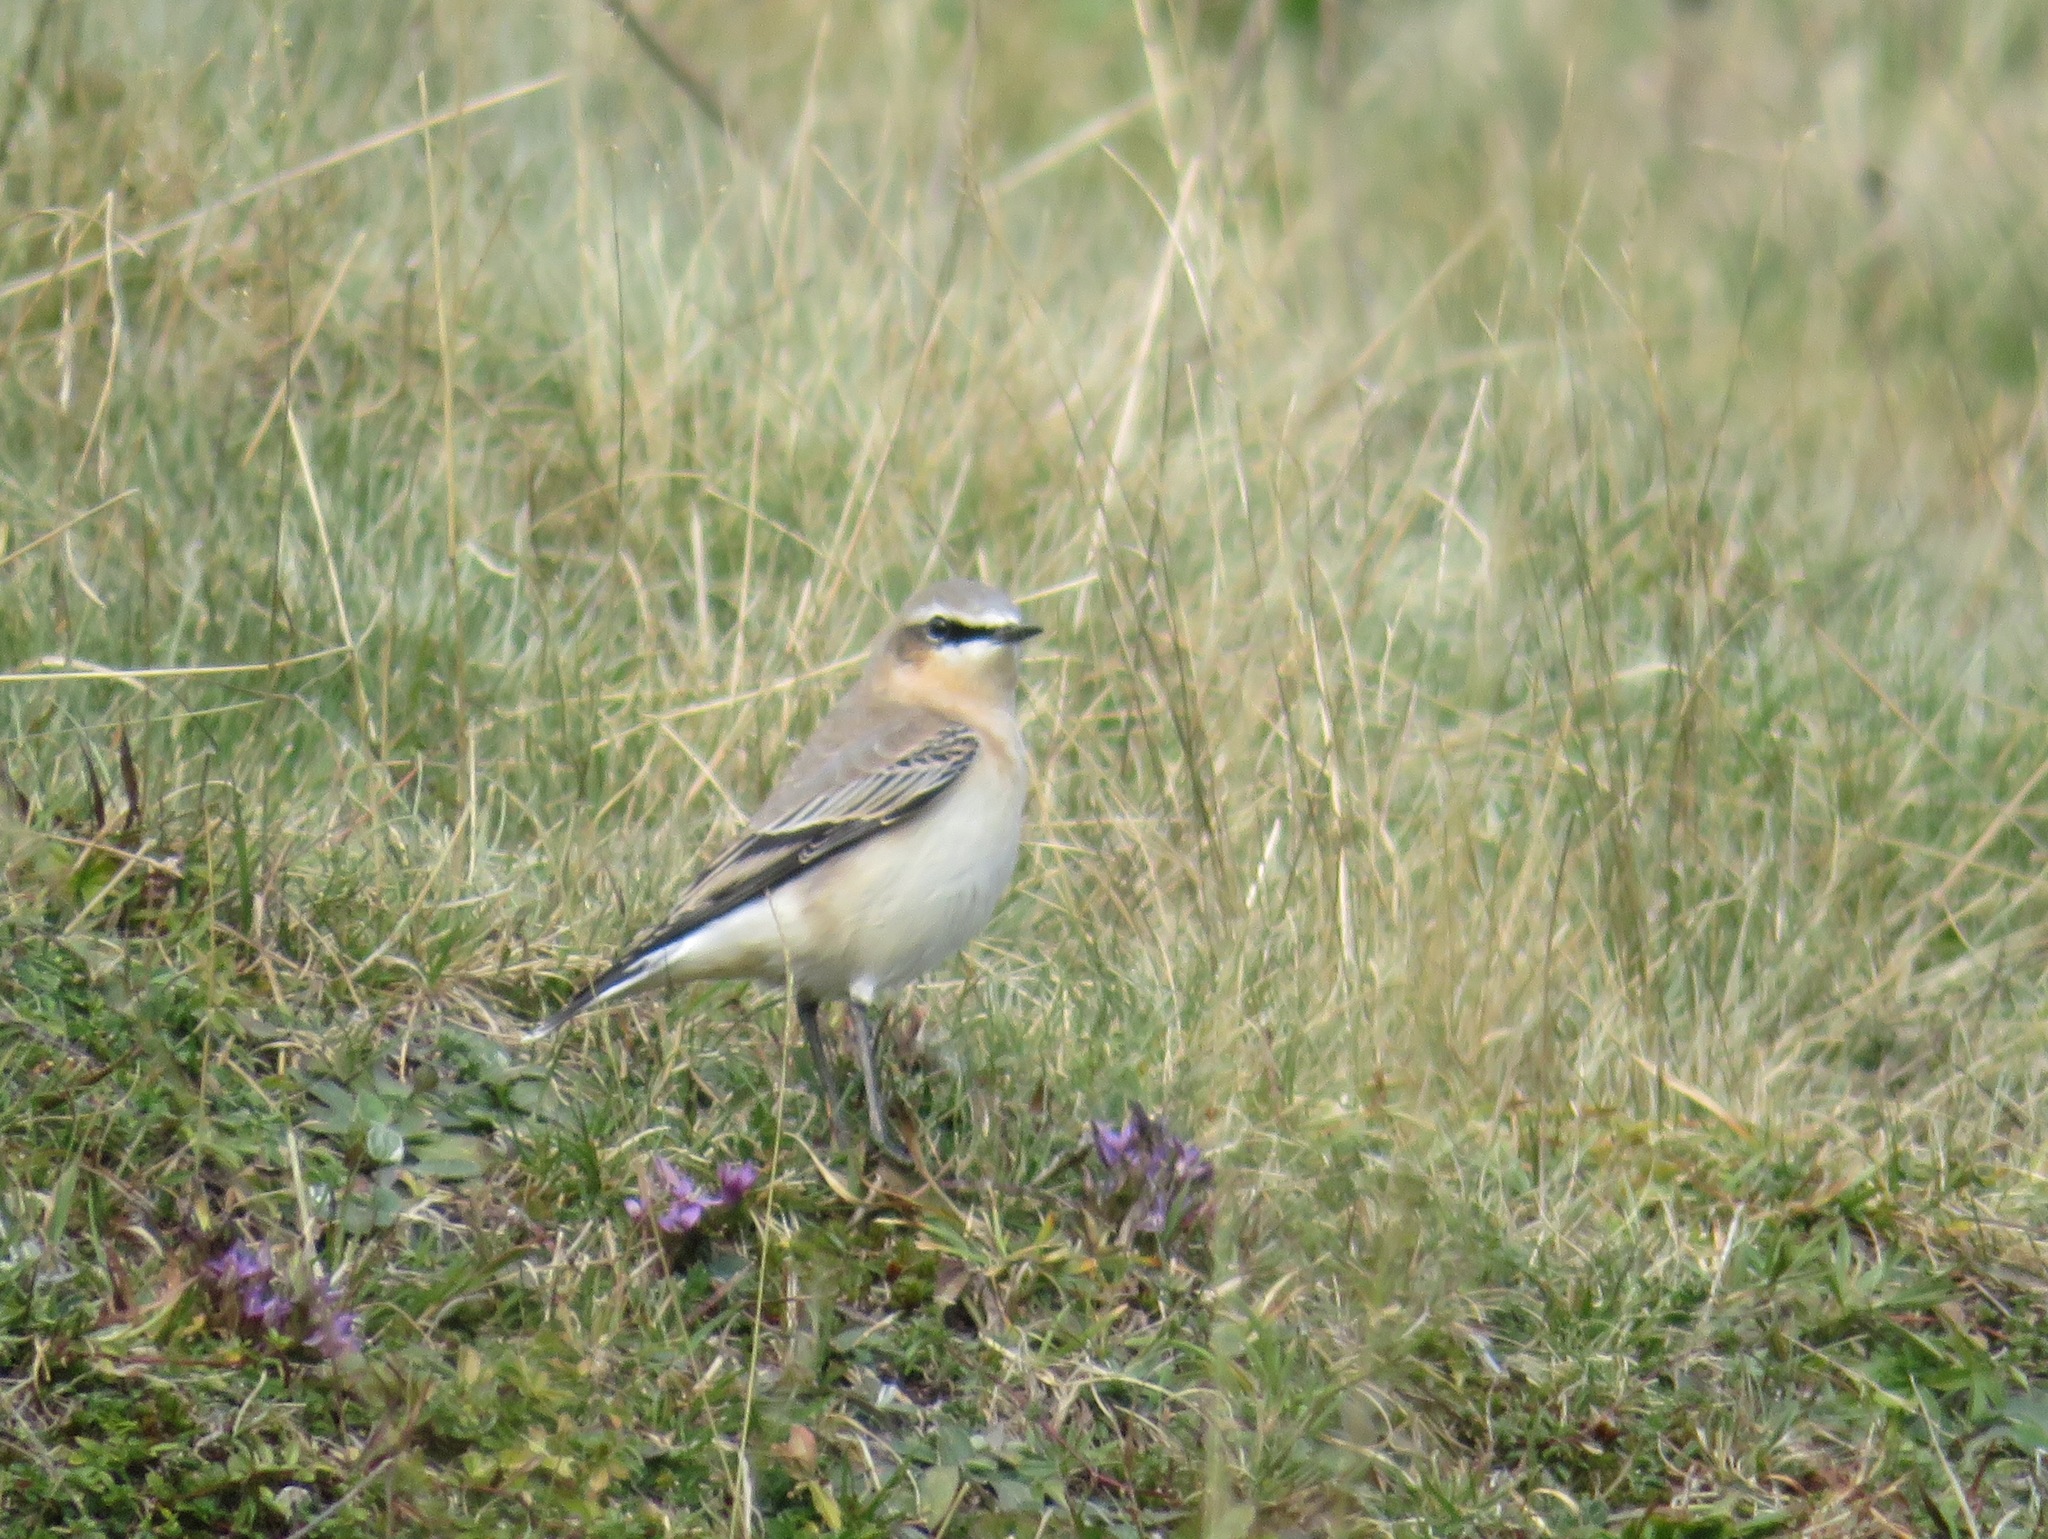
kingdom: Animalia
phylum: Chordata
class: Aves
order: Passeriformes
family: Muscicapidae
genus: Oenanthe
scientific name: Oenanthe oenanthe
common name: Northern wheatear
